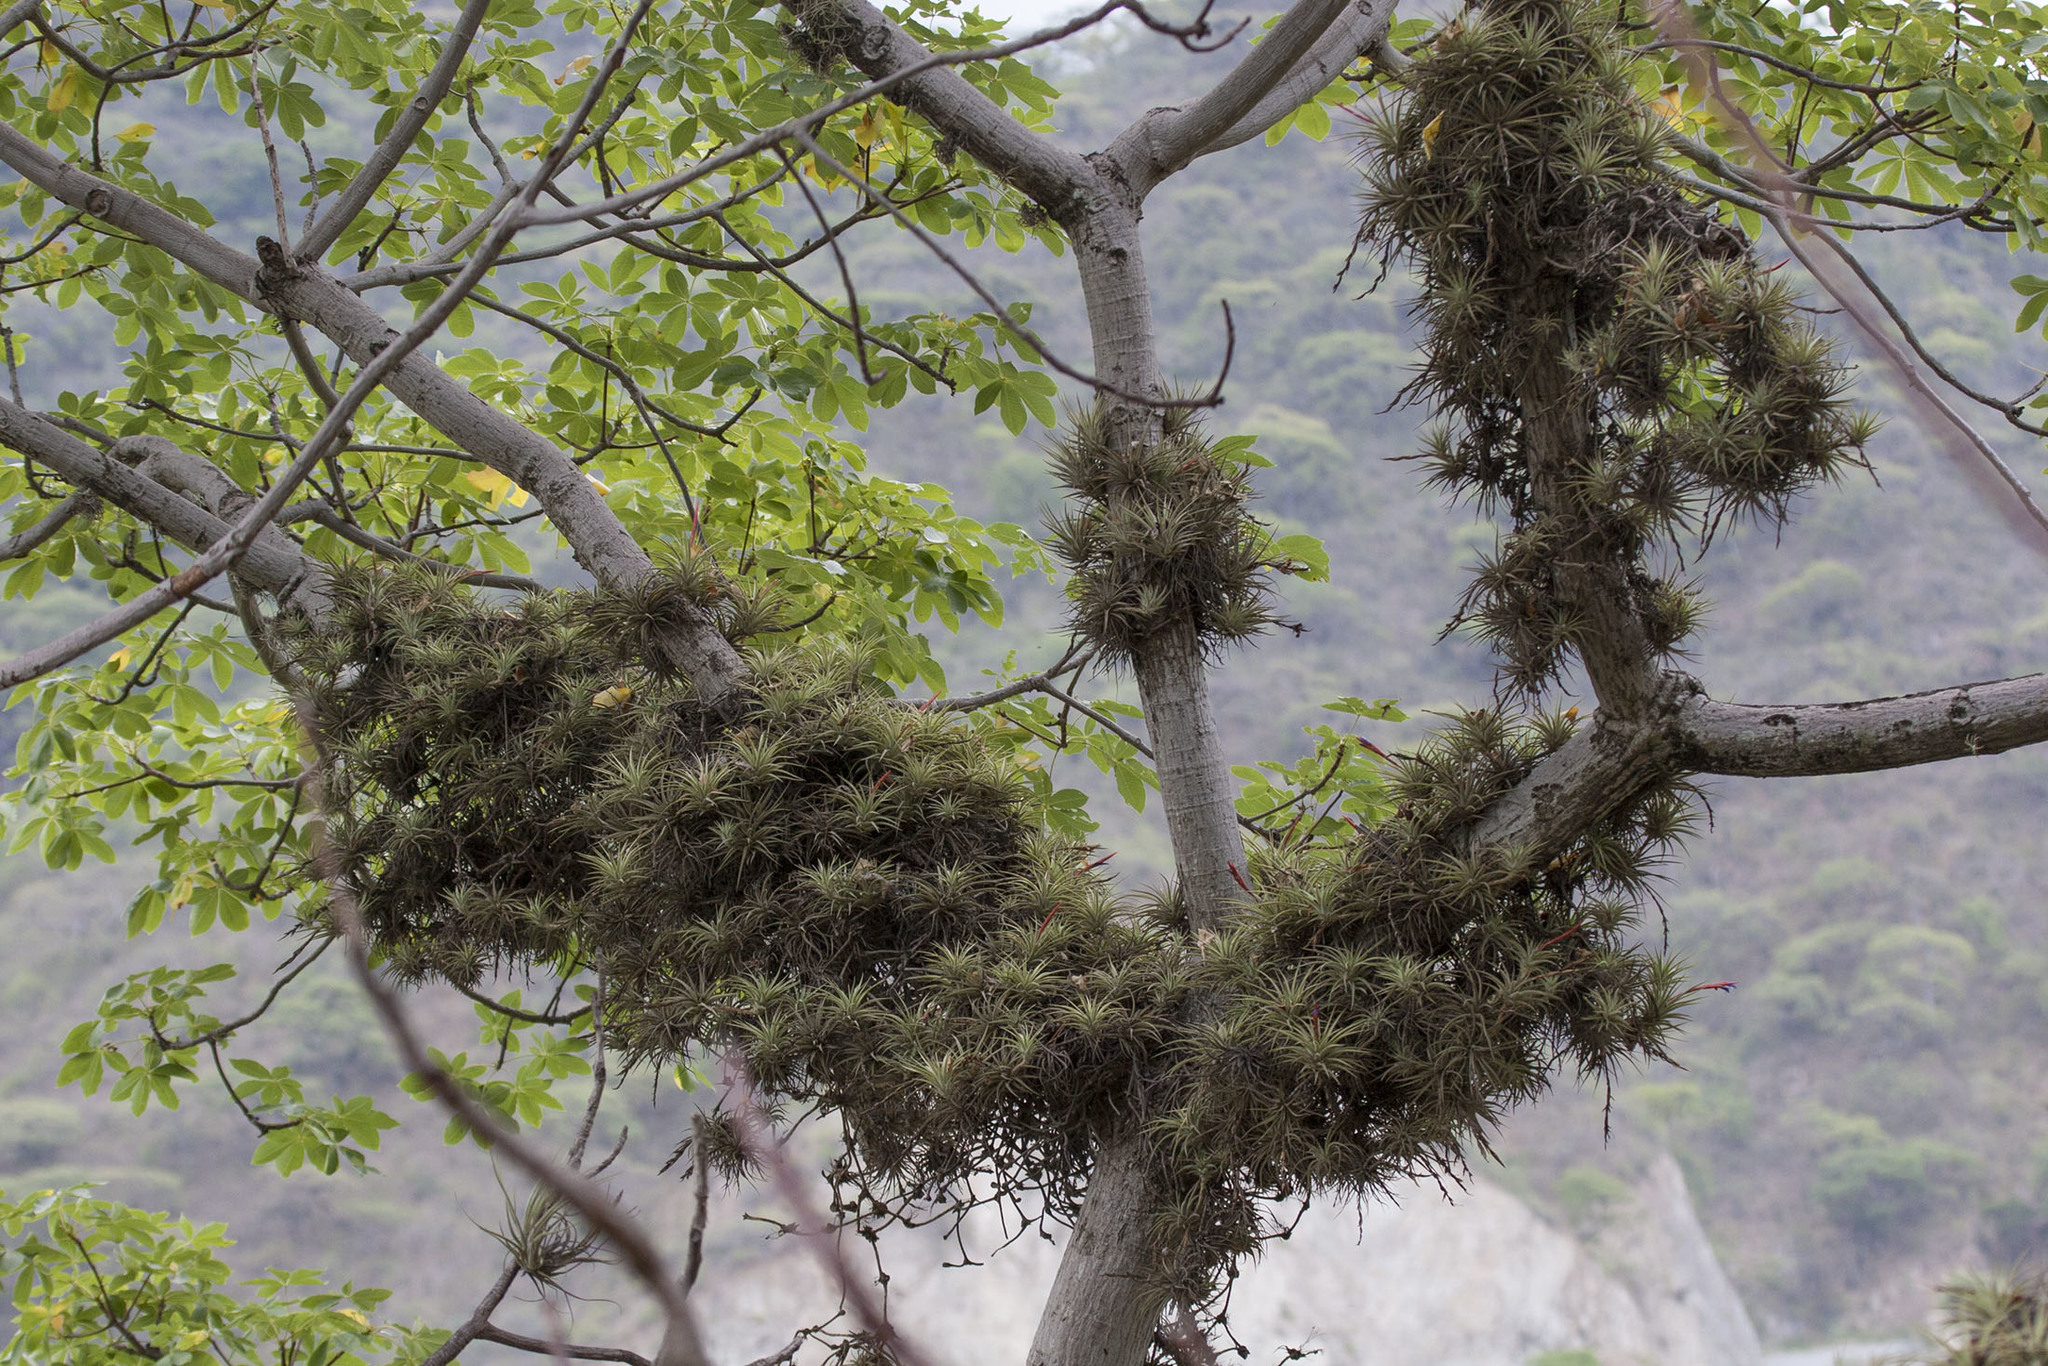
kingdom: Plantae
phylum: Tracheophyta
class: Liliopsida
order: Poales
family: Bromeliaceae
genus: Tillandsia
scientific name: Tillandsia espinosae
